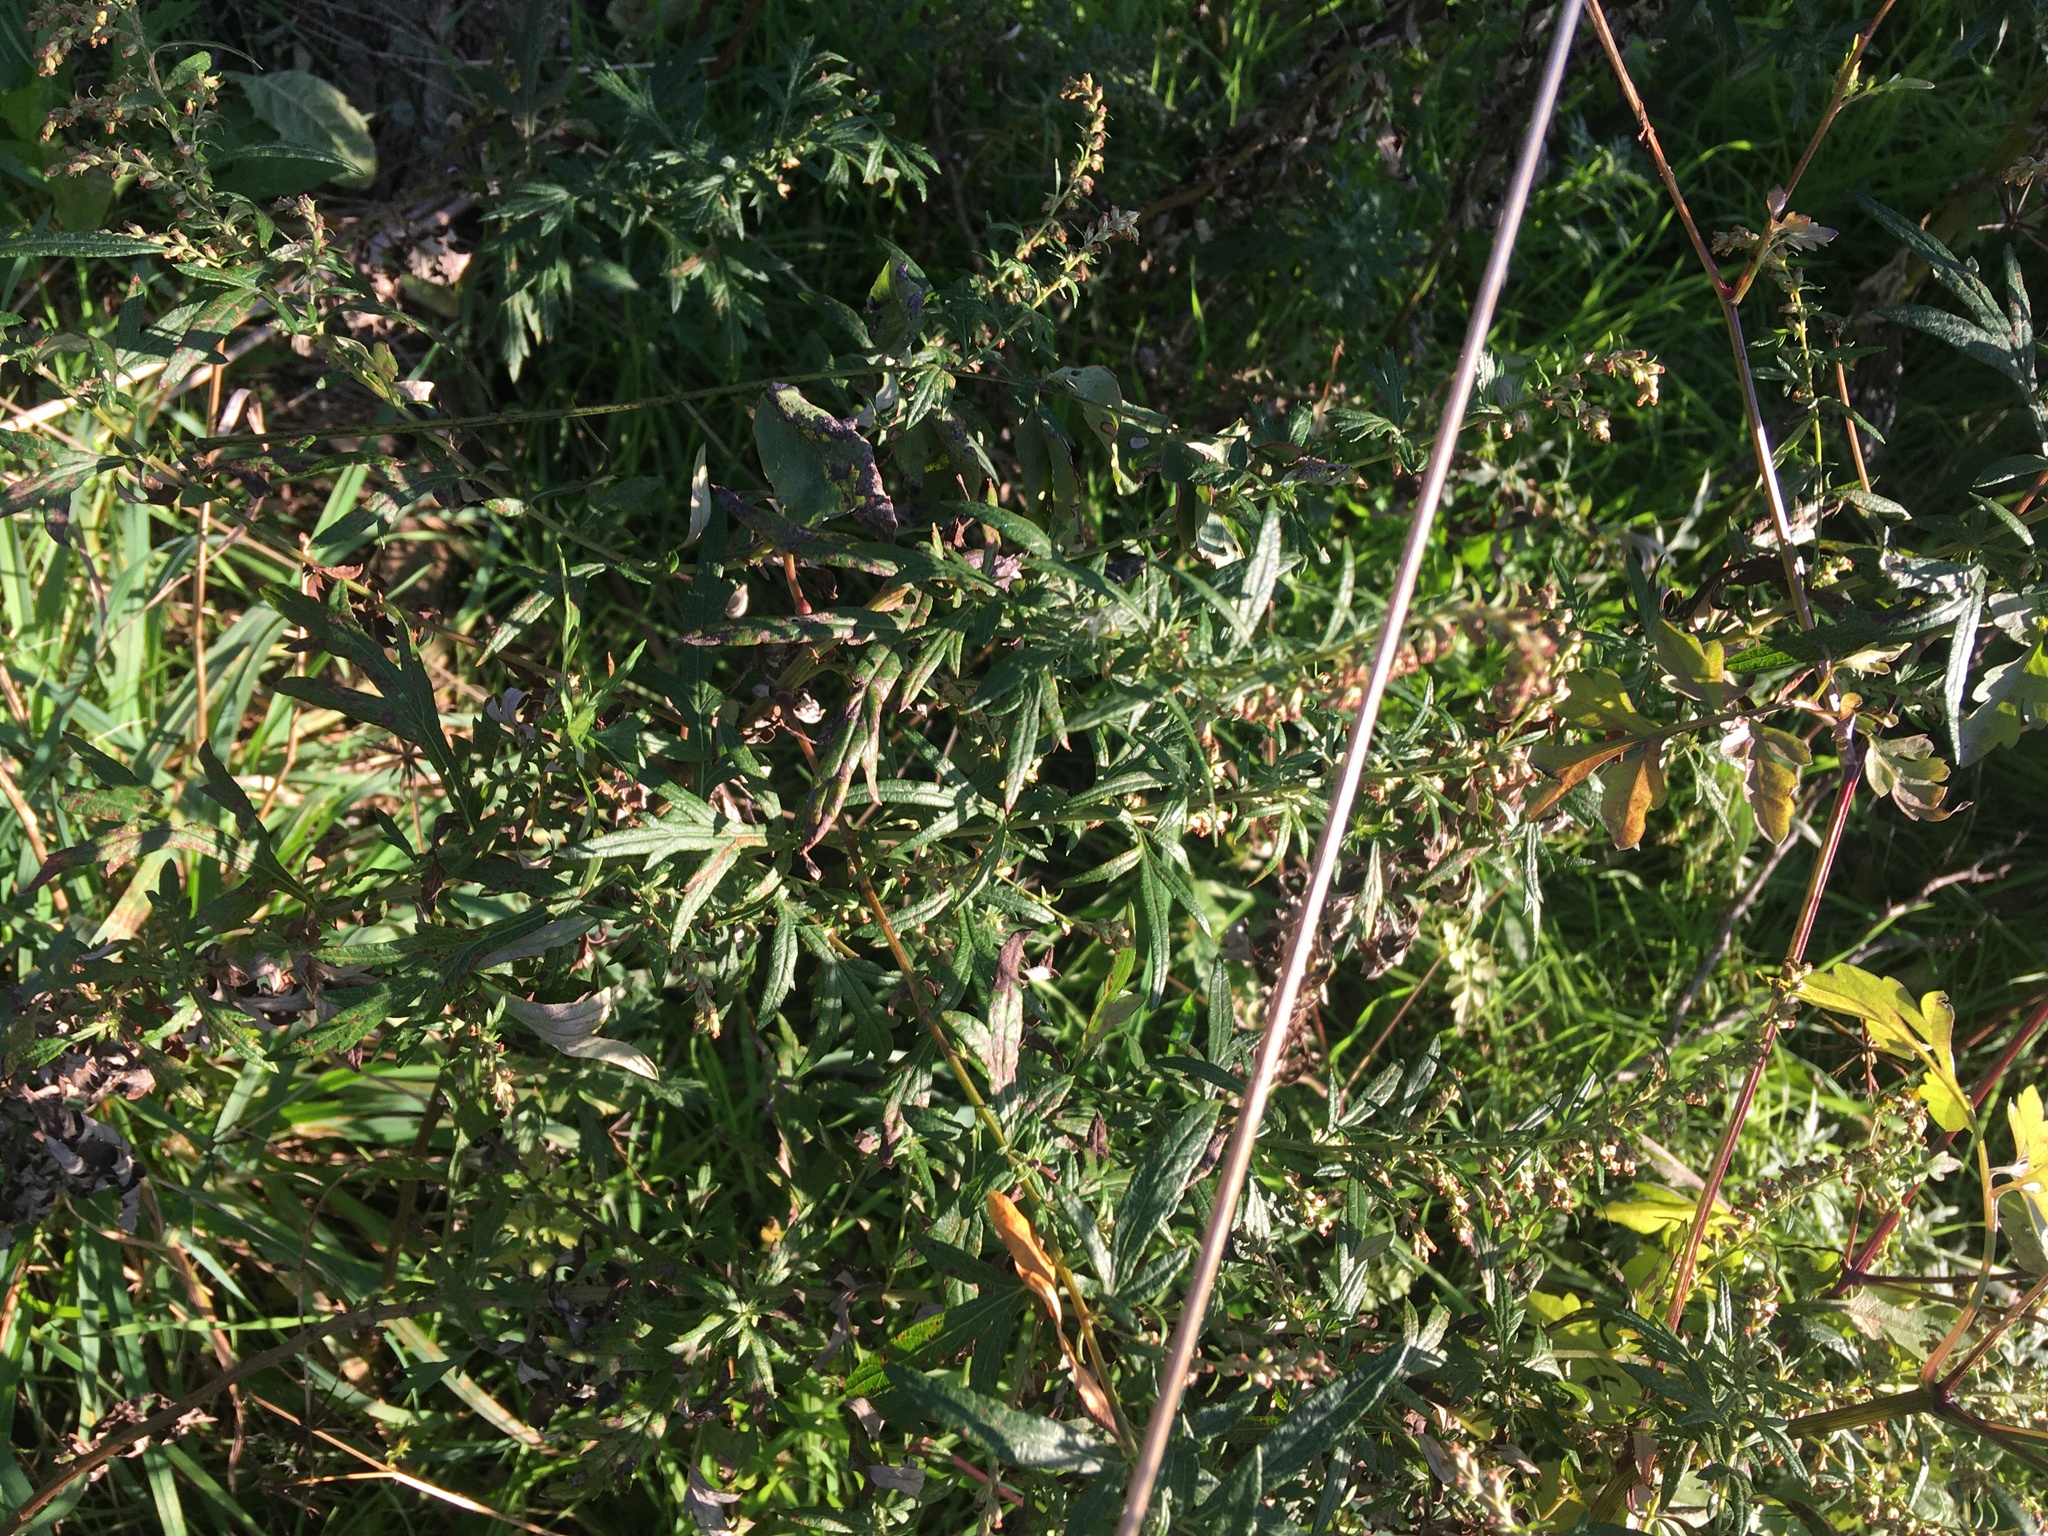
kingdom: Plantae
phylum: Tracheophyta
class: Magnoliopsida
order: Asterales
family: Asteraceae
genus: Artemisia
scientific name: Artemisia vulgaris
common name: Mugwort
